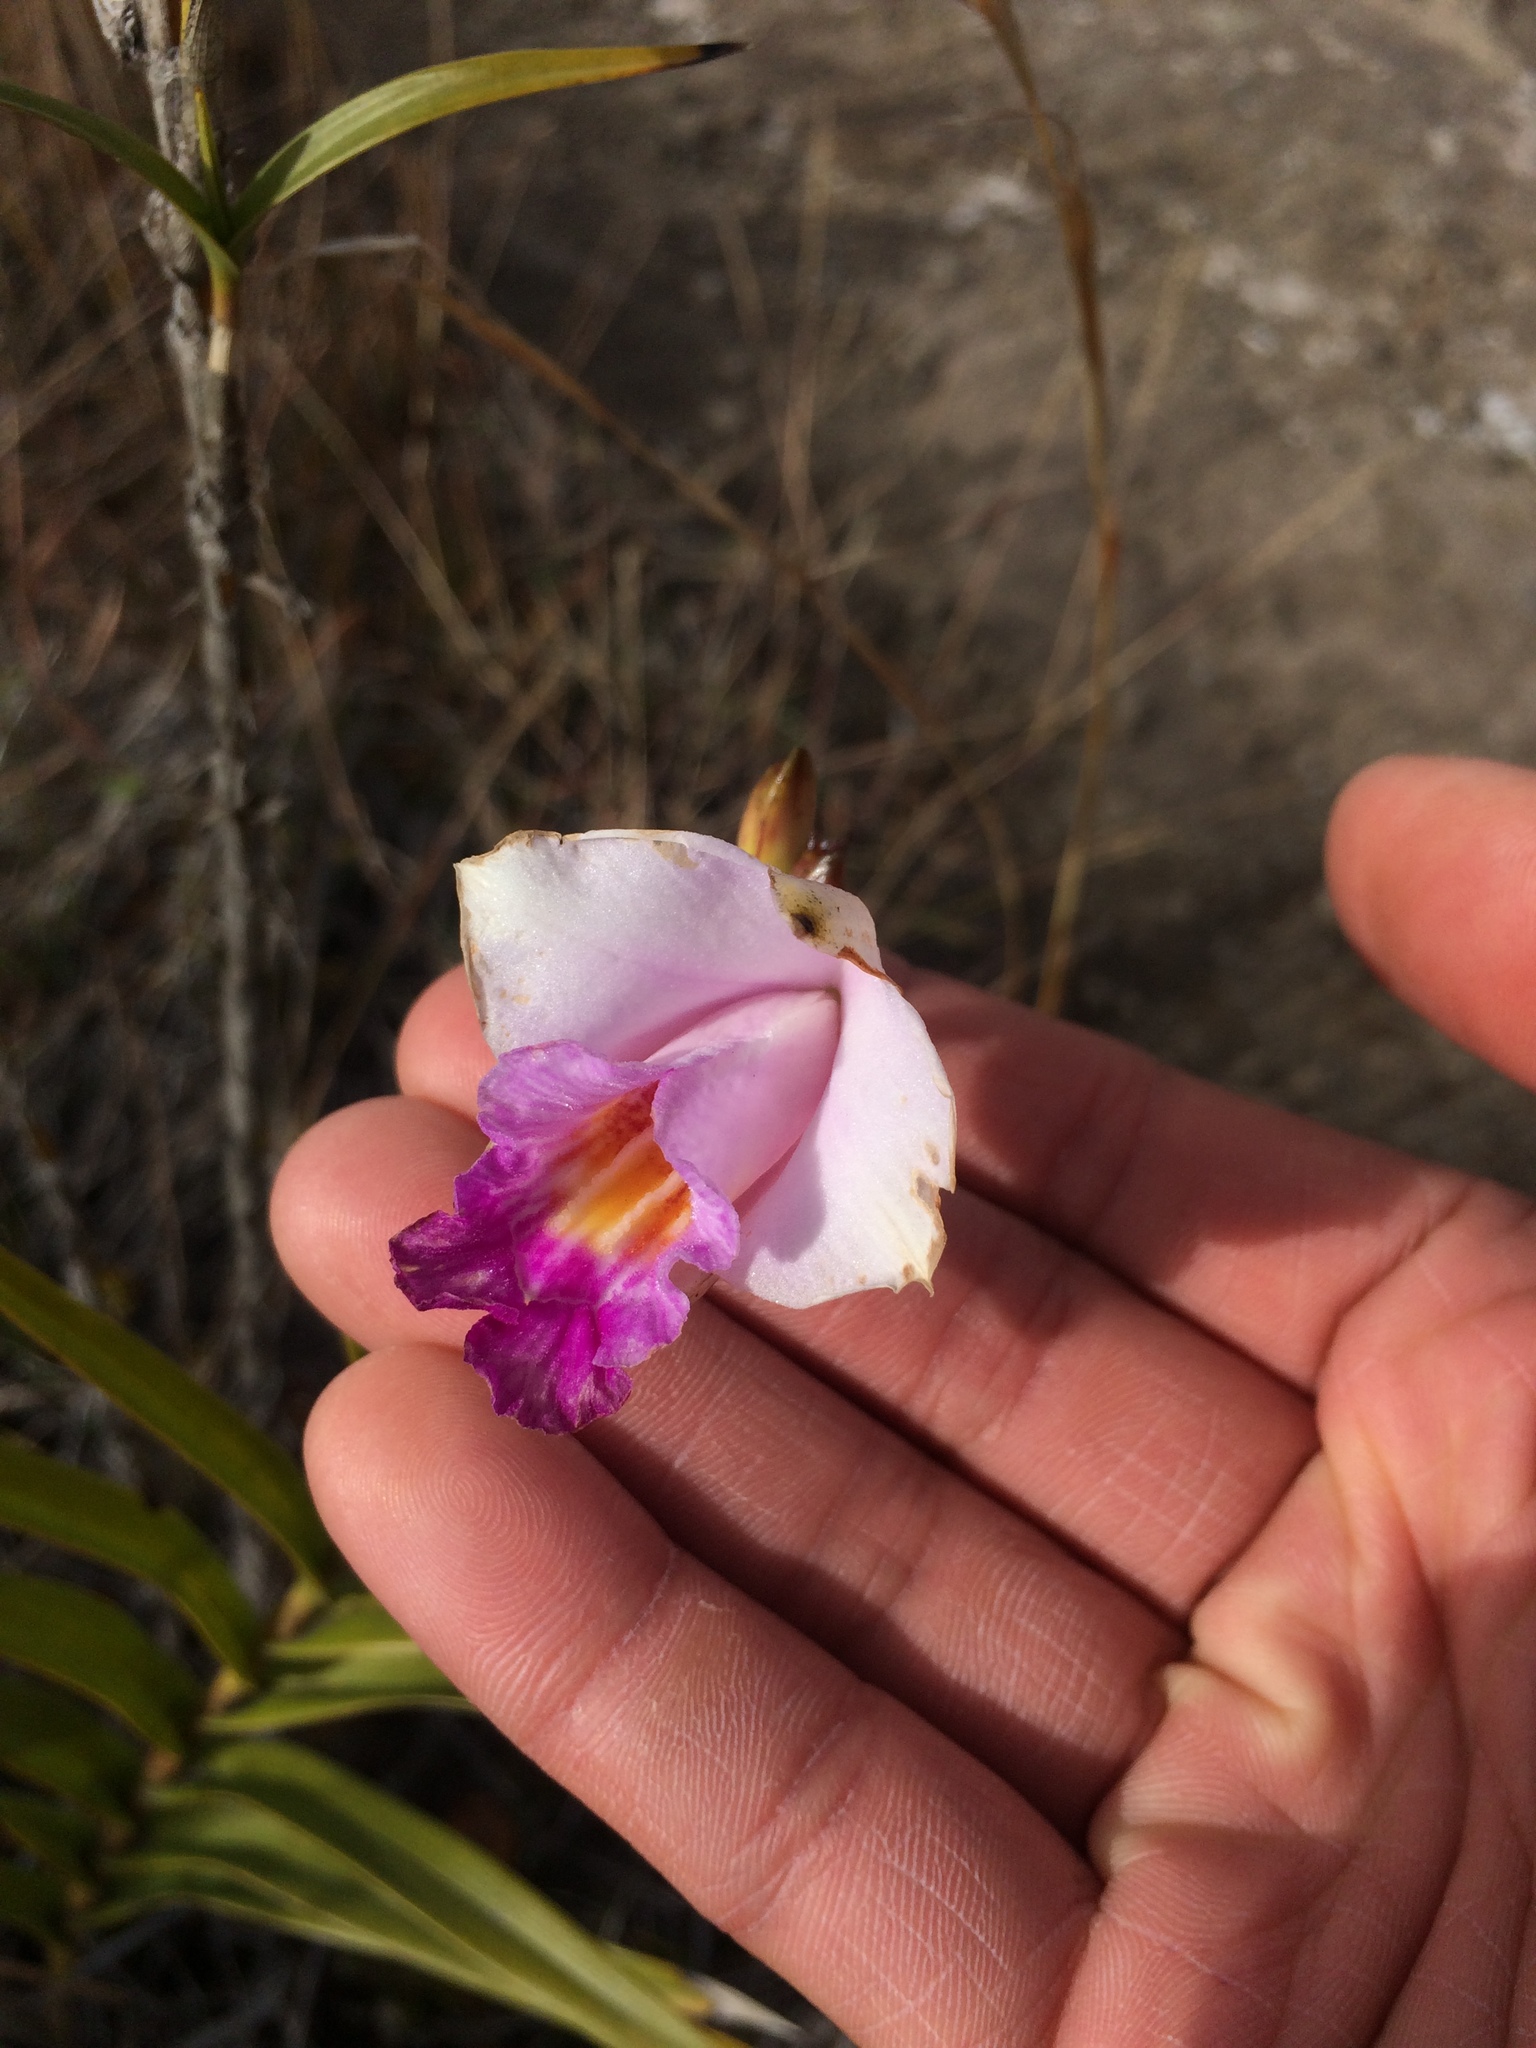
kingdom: Plantae
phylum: Tracheophyta
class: Liliopsida
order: Asparagales
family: Orchidaceae
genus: Arundina
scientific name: Arundina graminifolia
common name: Bamboo orchid
